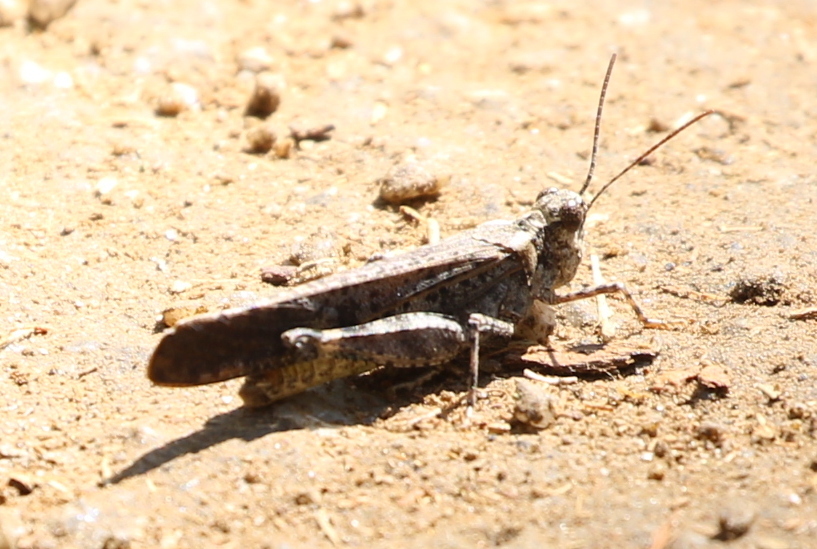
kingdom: Animalia
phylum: Arthropoda
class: Insecta
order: Orthoptera
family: Acrididae
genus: Trimerotropis
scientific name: Trimerotropis verruculata
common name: Crackling forest grasshopper
